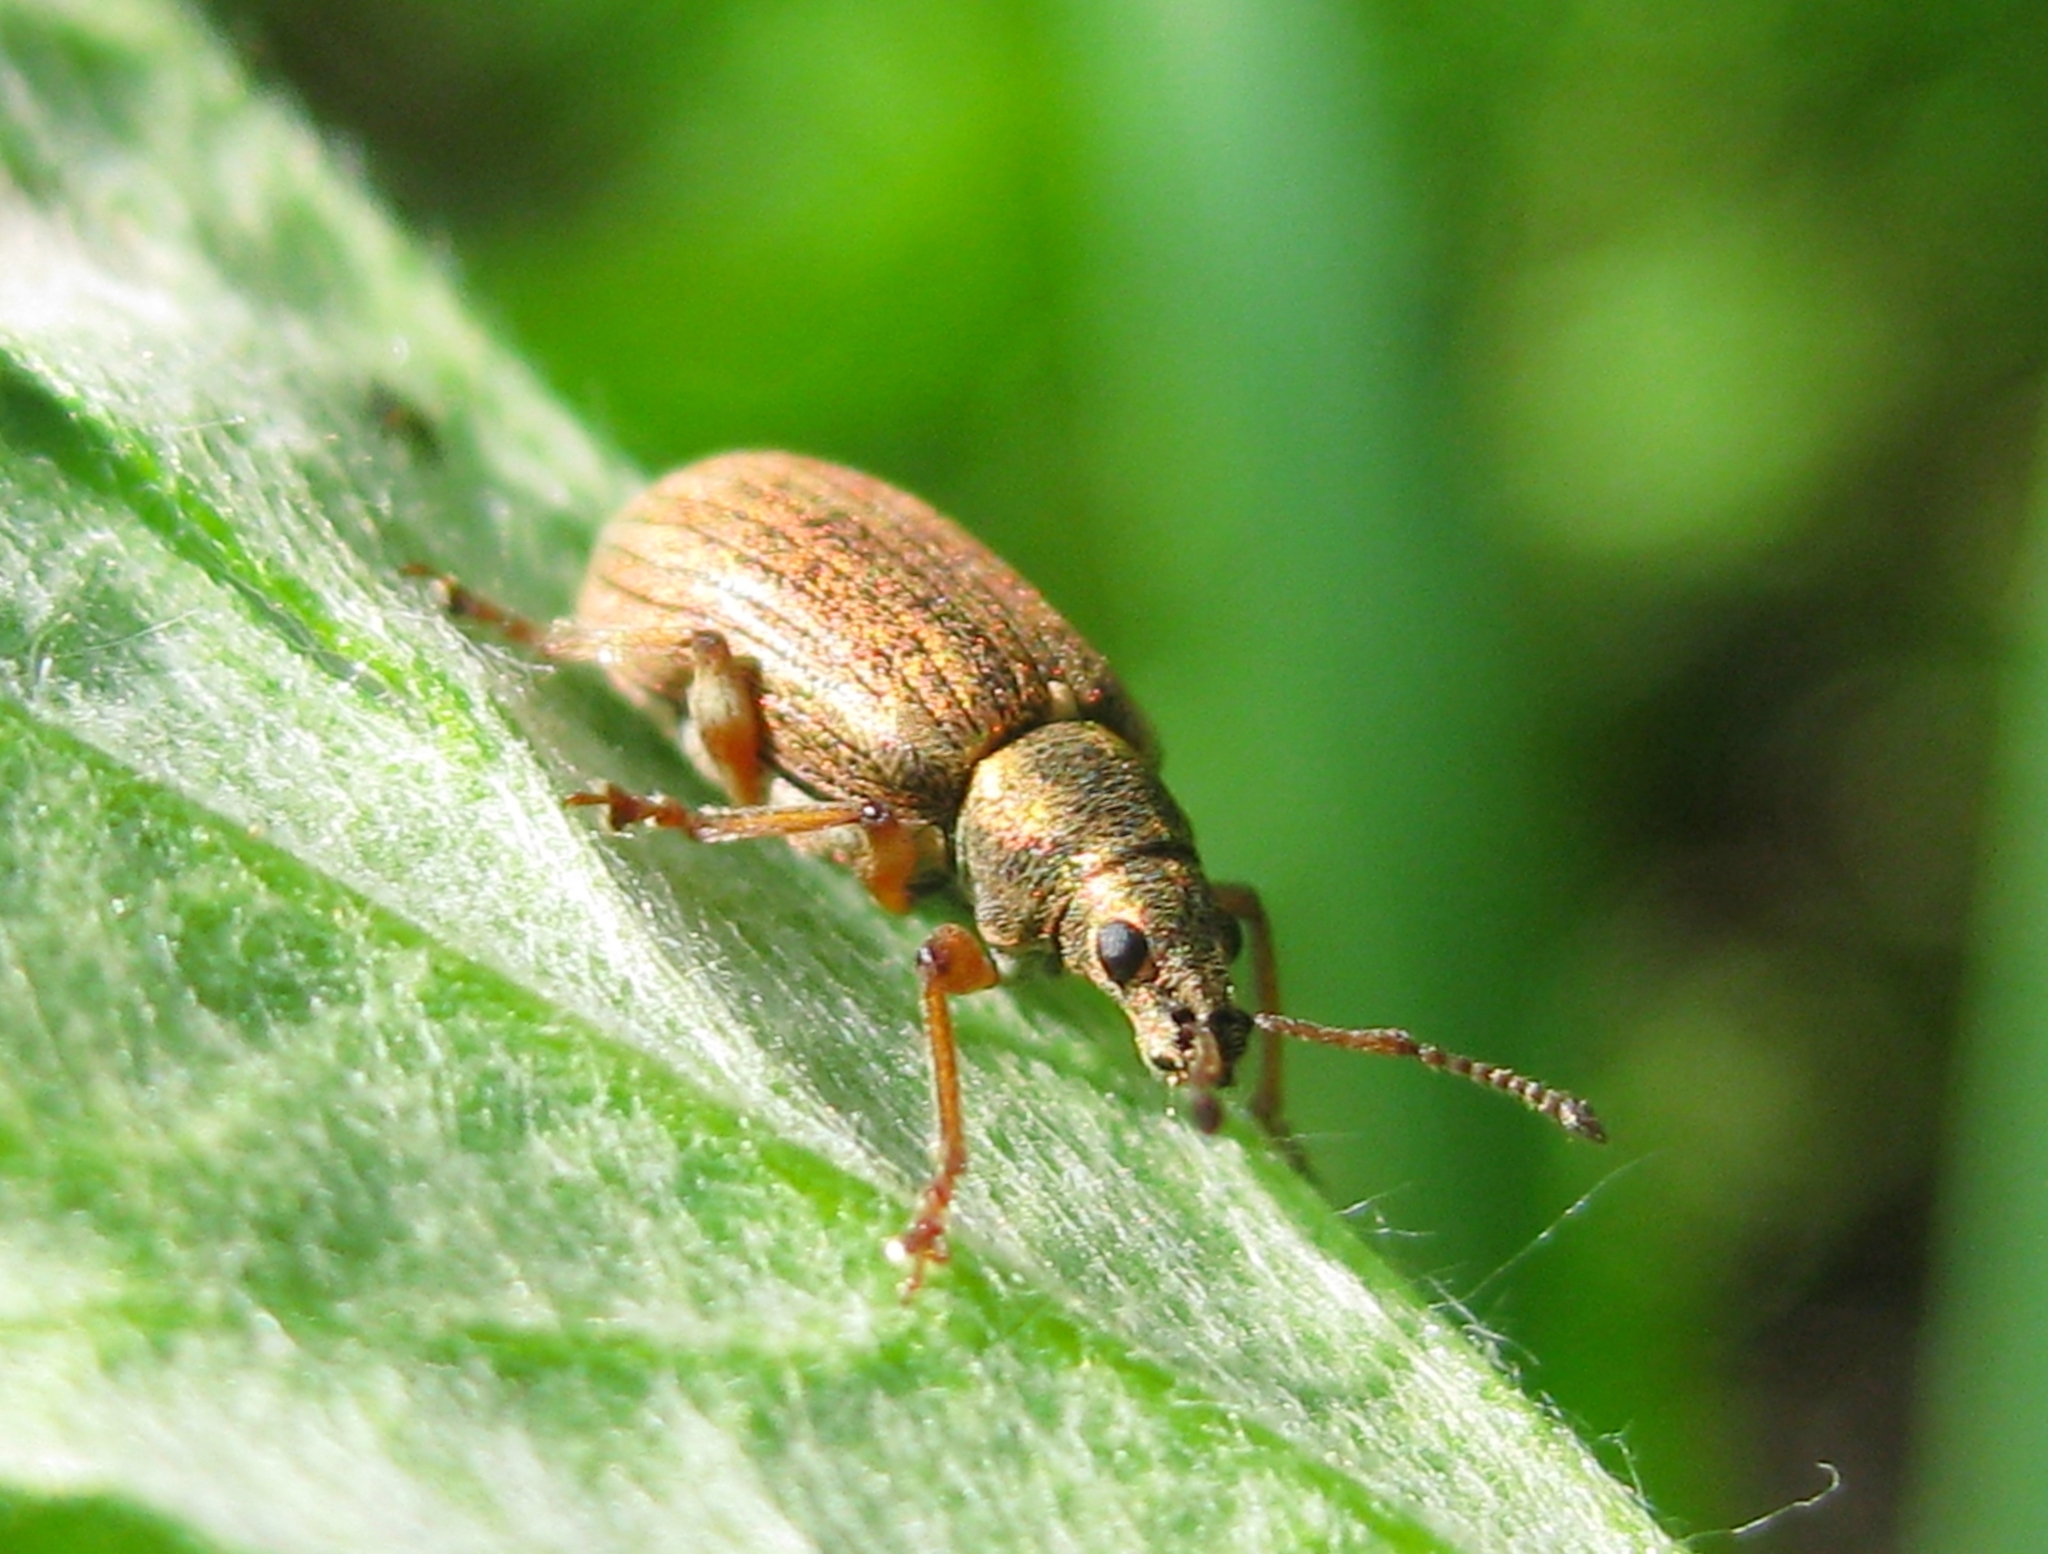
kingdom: Animalia
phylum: Arthropoda
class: Insecta
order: Coleoptera
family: Curculionidae
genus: Phyllobius
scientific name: Phyllobius pyri
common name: Common leaf weevil
